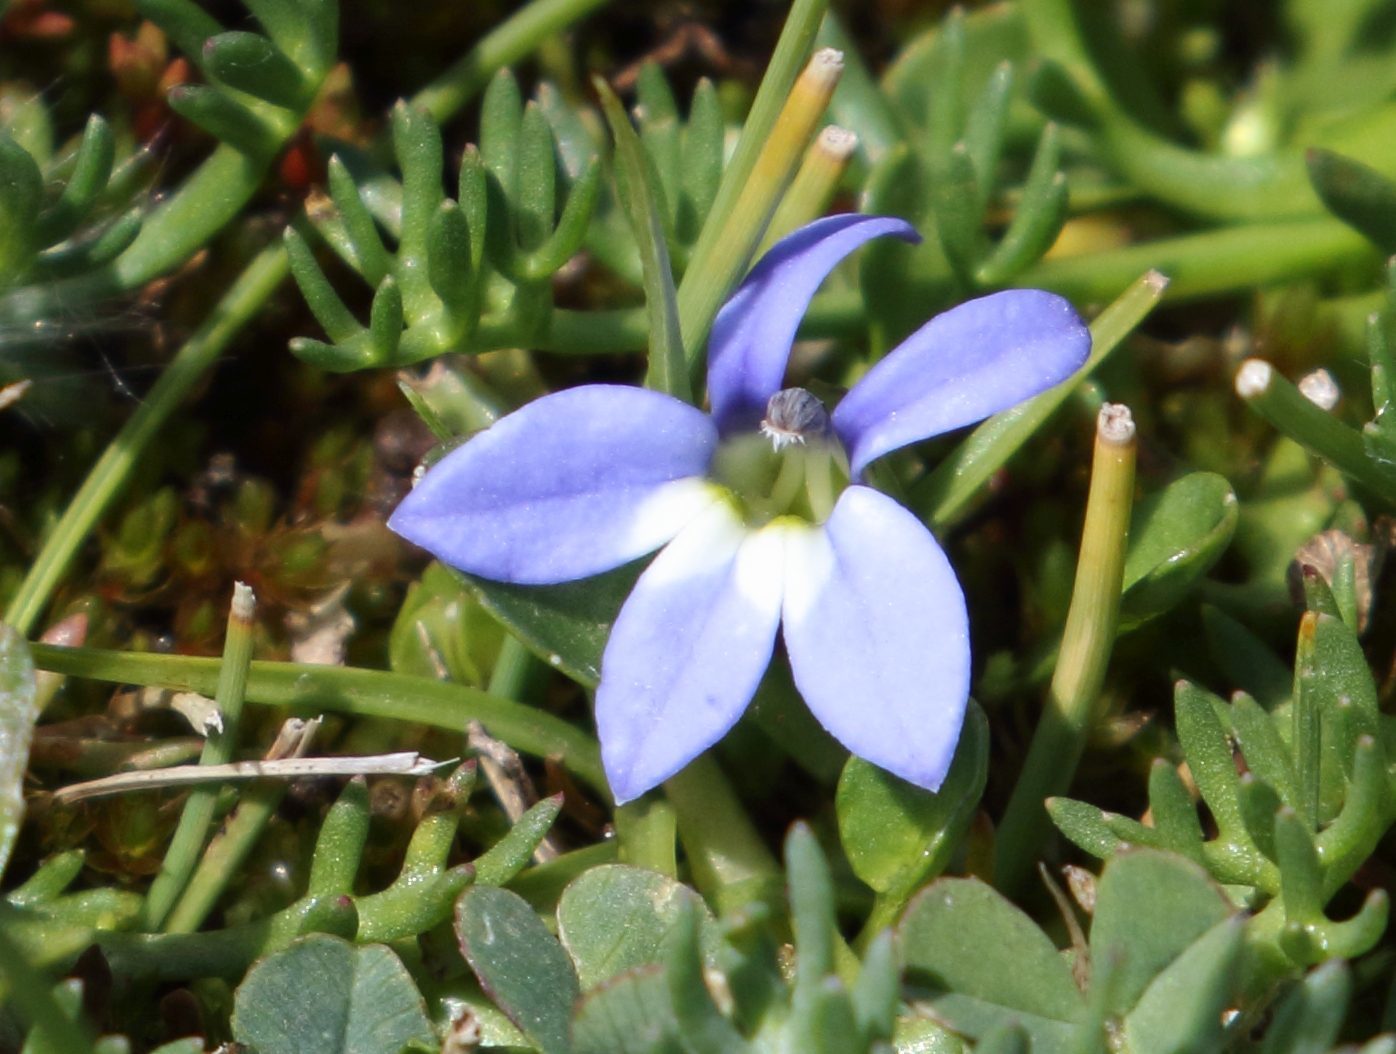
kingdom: Plantae
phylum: Tracheophyta
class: Magnoliopsida
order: Asterales
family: Campanulaceae
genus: Lobelia
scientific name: Lobelia galpinii
